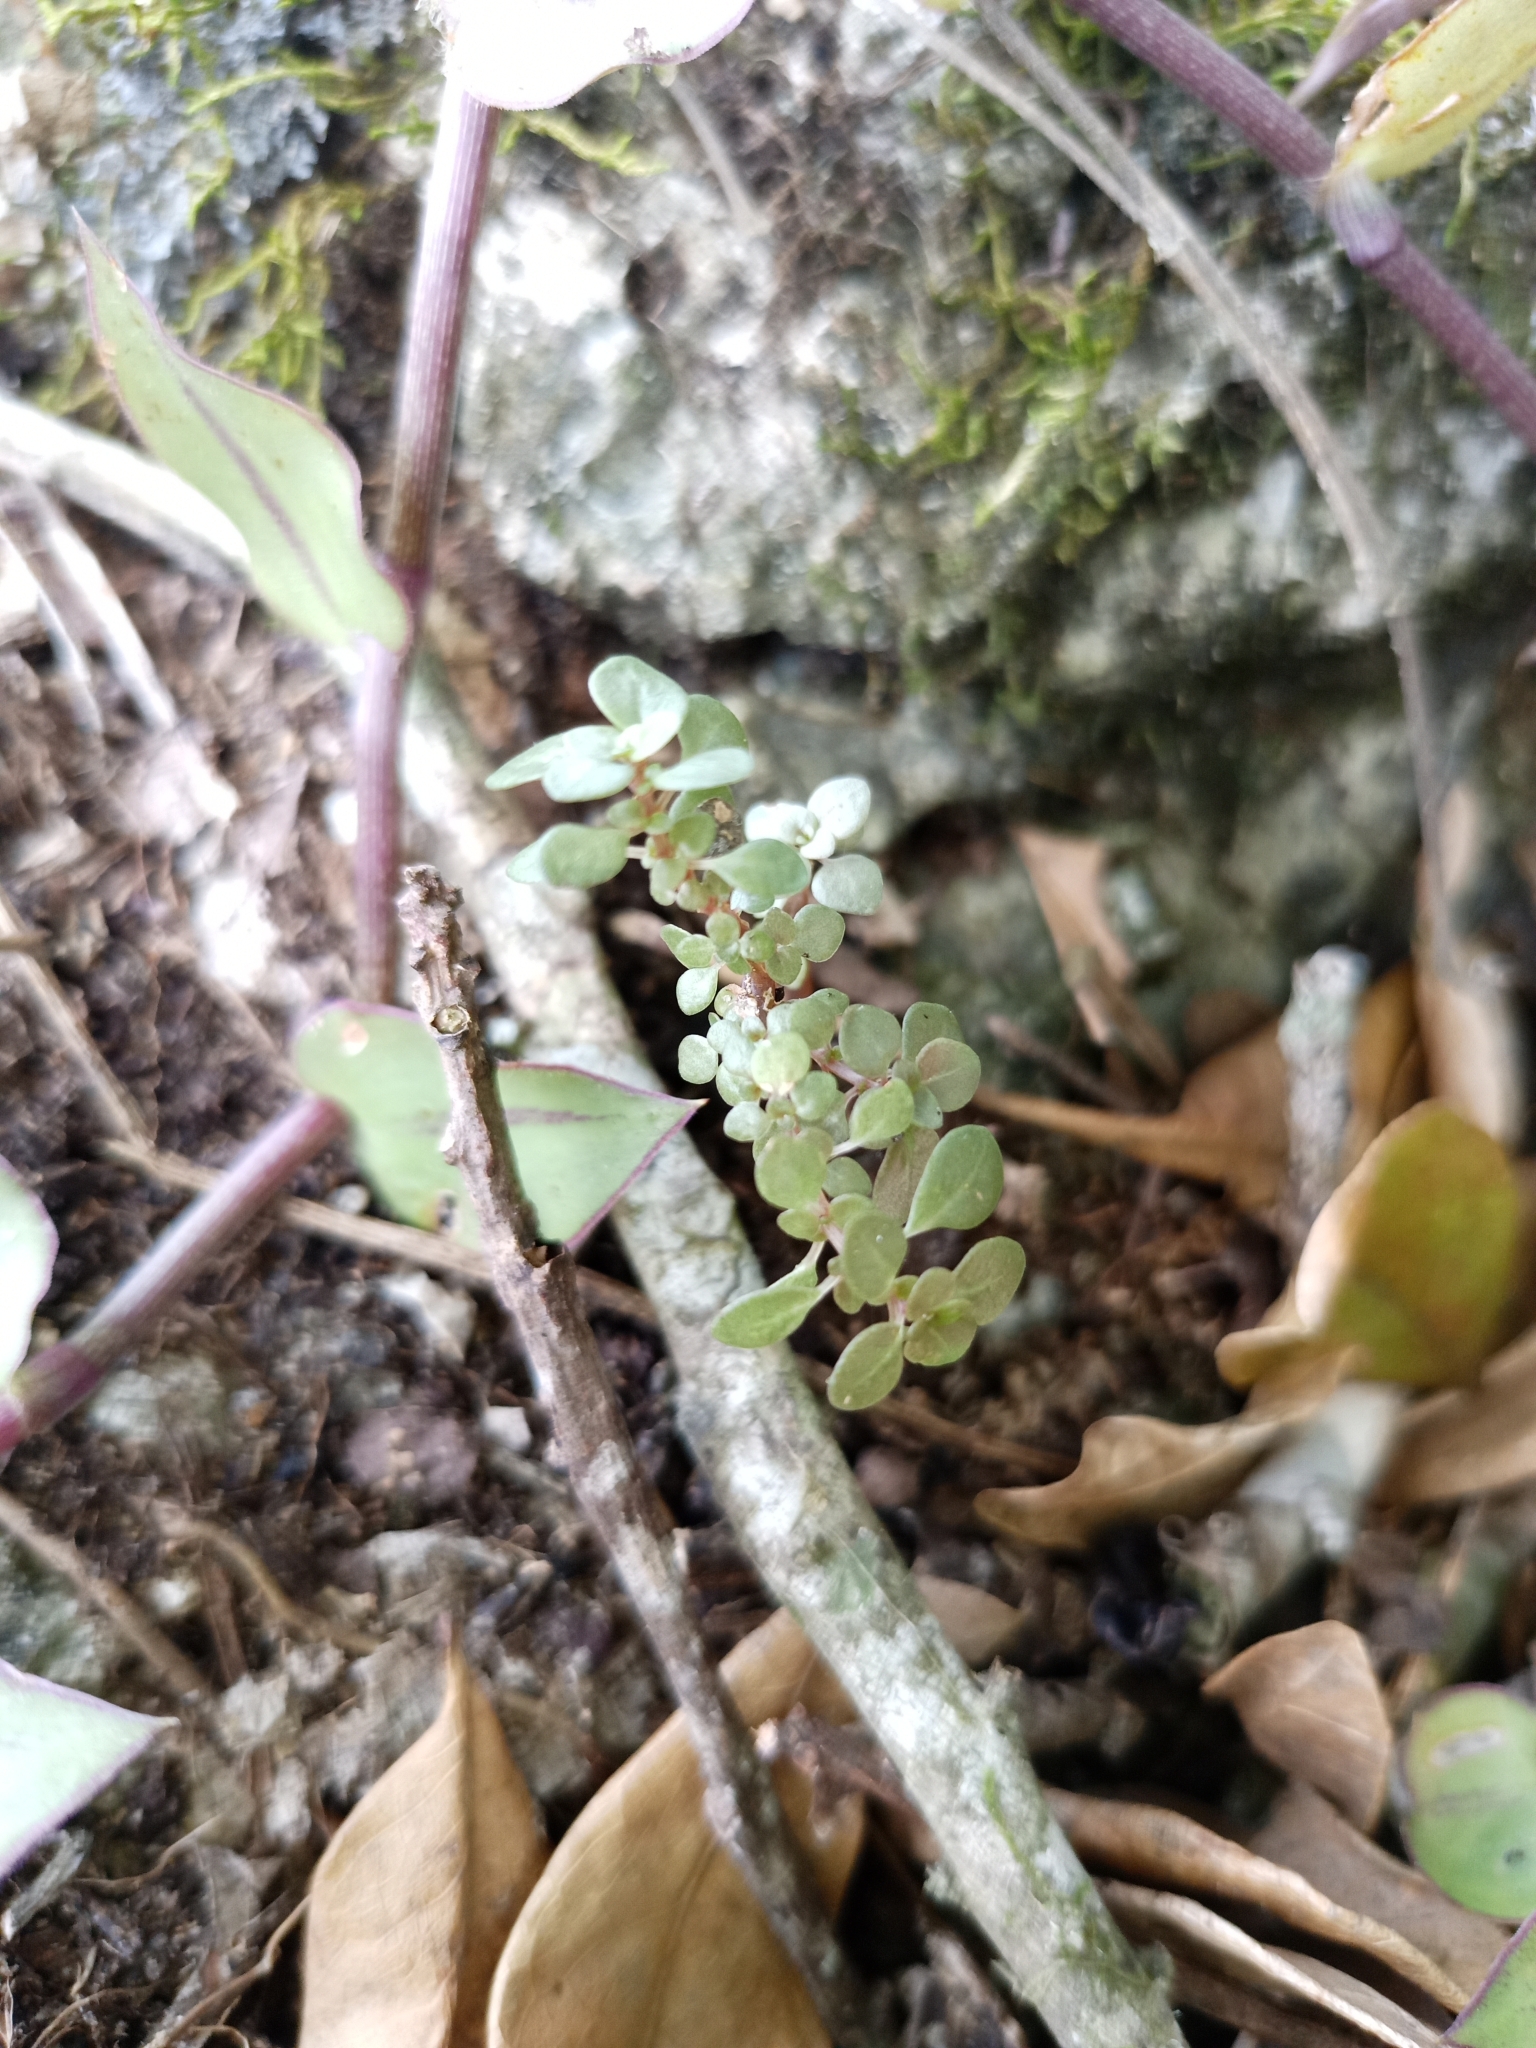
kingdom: Plantae
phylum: Tracheophyta
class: Magnoliopsida
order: Rosales
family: Urticaceae
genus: Pilea
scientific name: Pilea microphylla
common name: Artillery-plant
